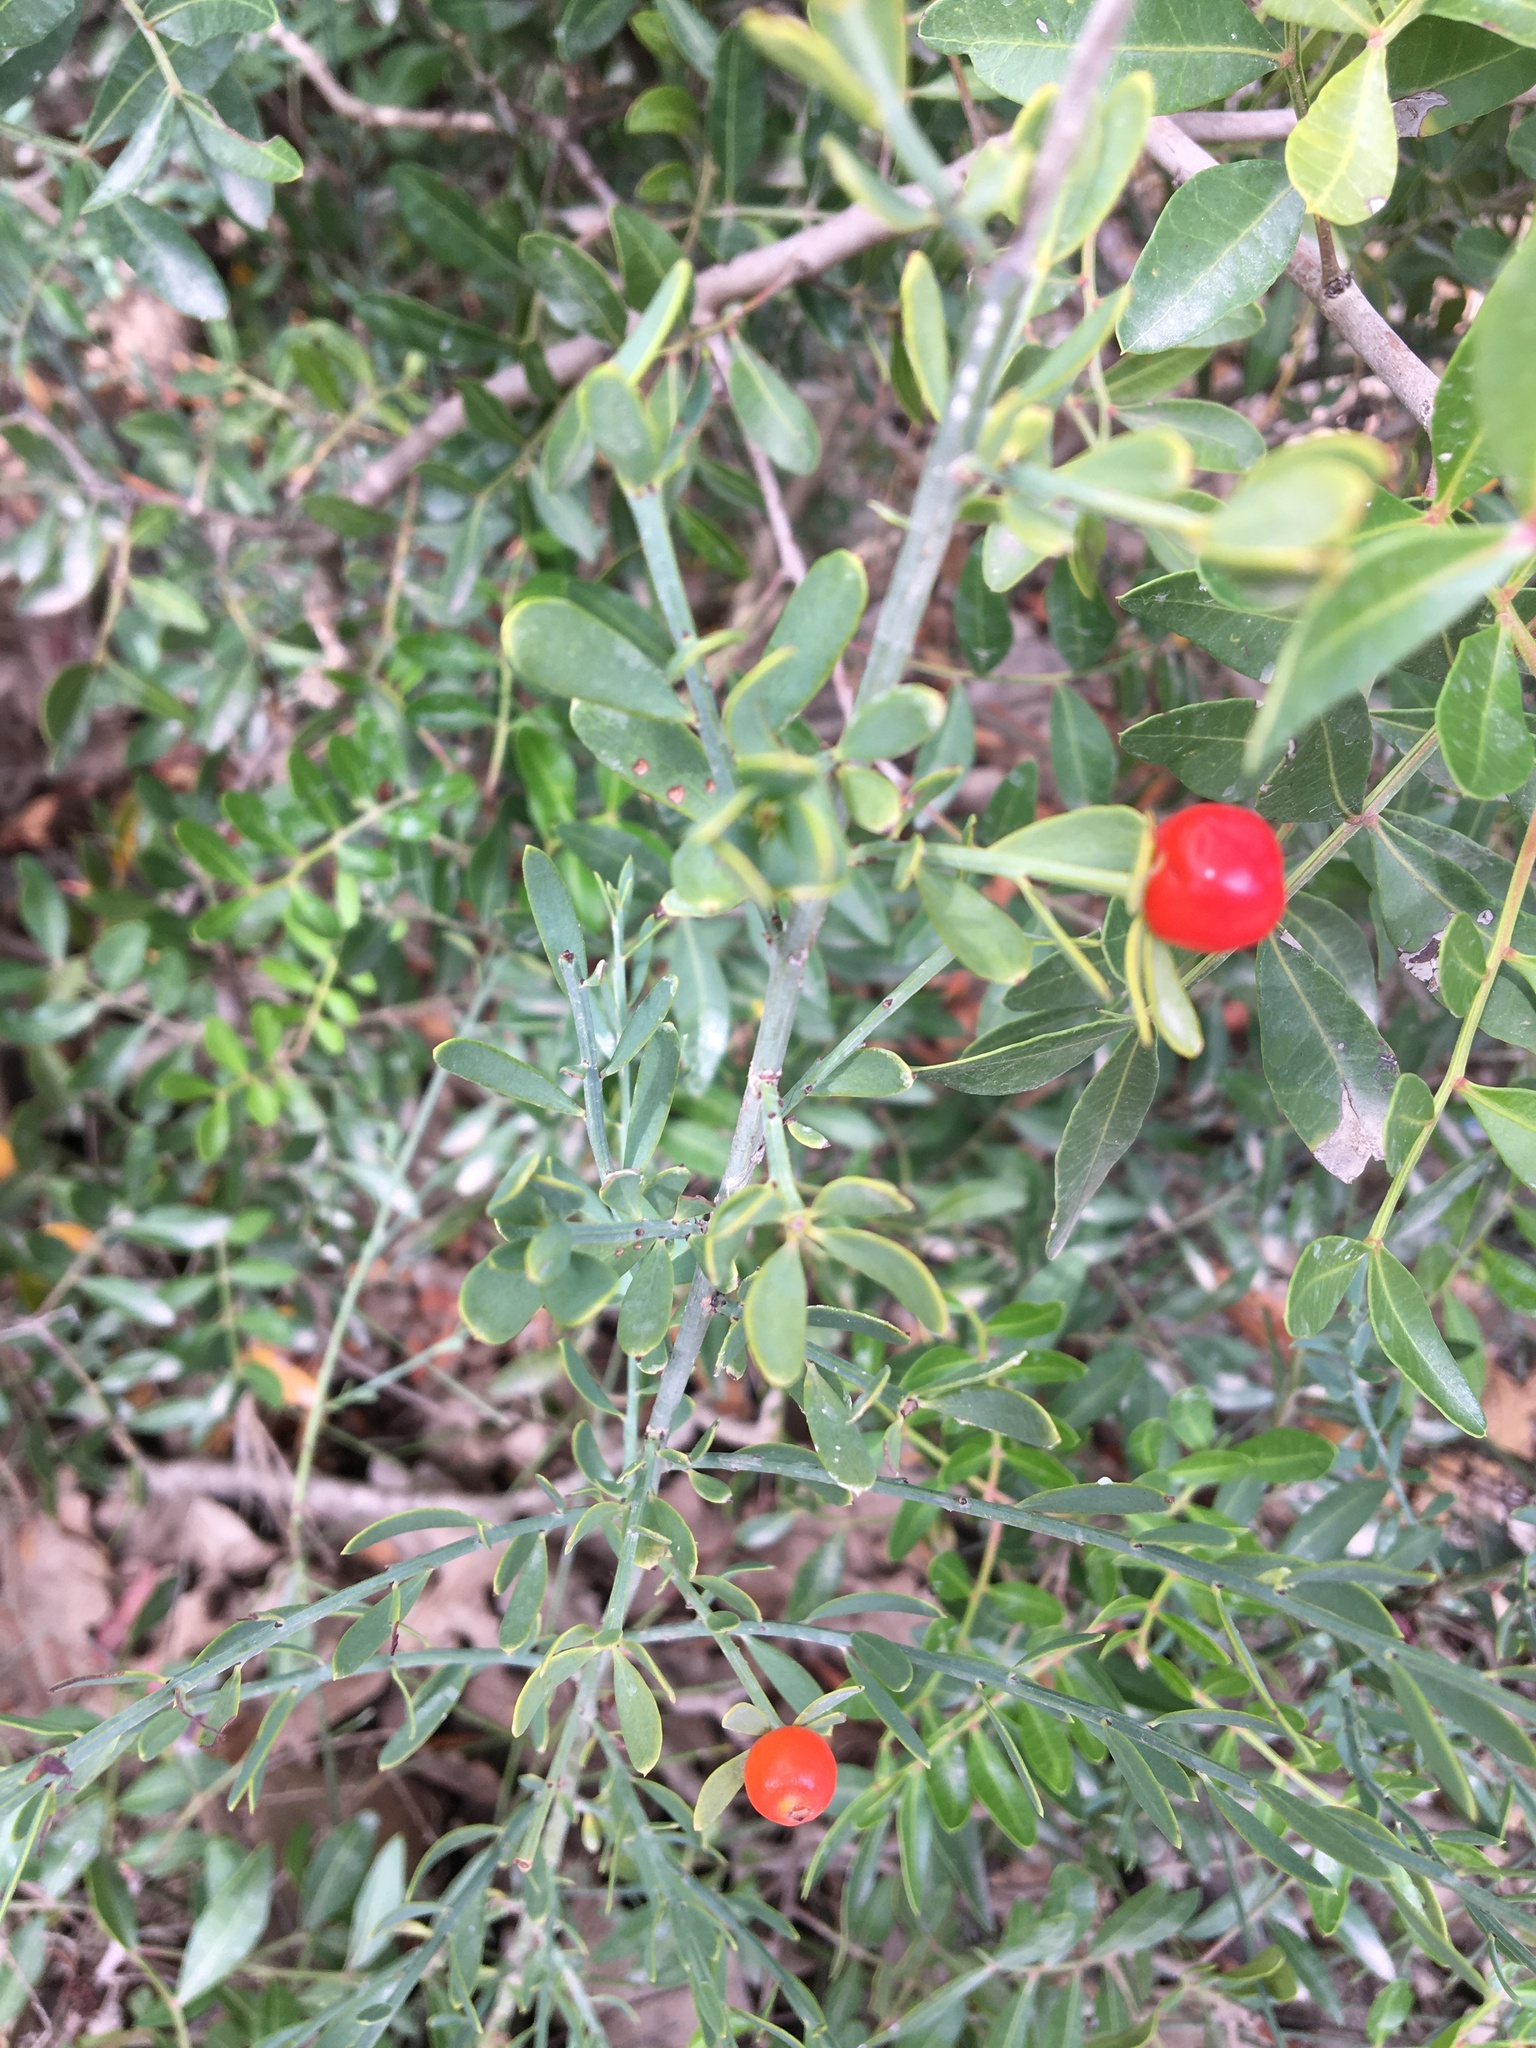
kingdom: Plantae
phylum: Tracheophyta
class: Magnoliopsida
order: Santalales
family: Santalaceae
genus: Osyris
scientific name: Osyris alba
